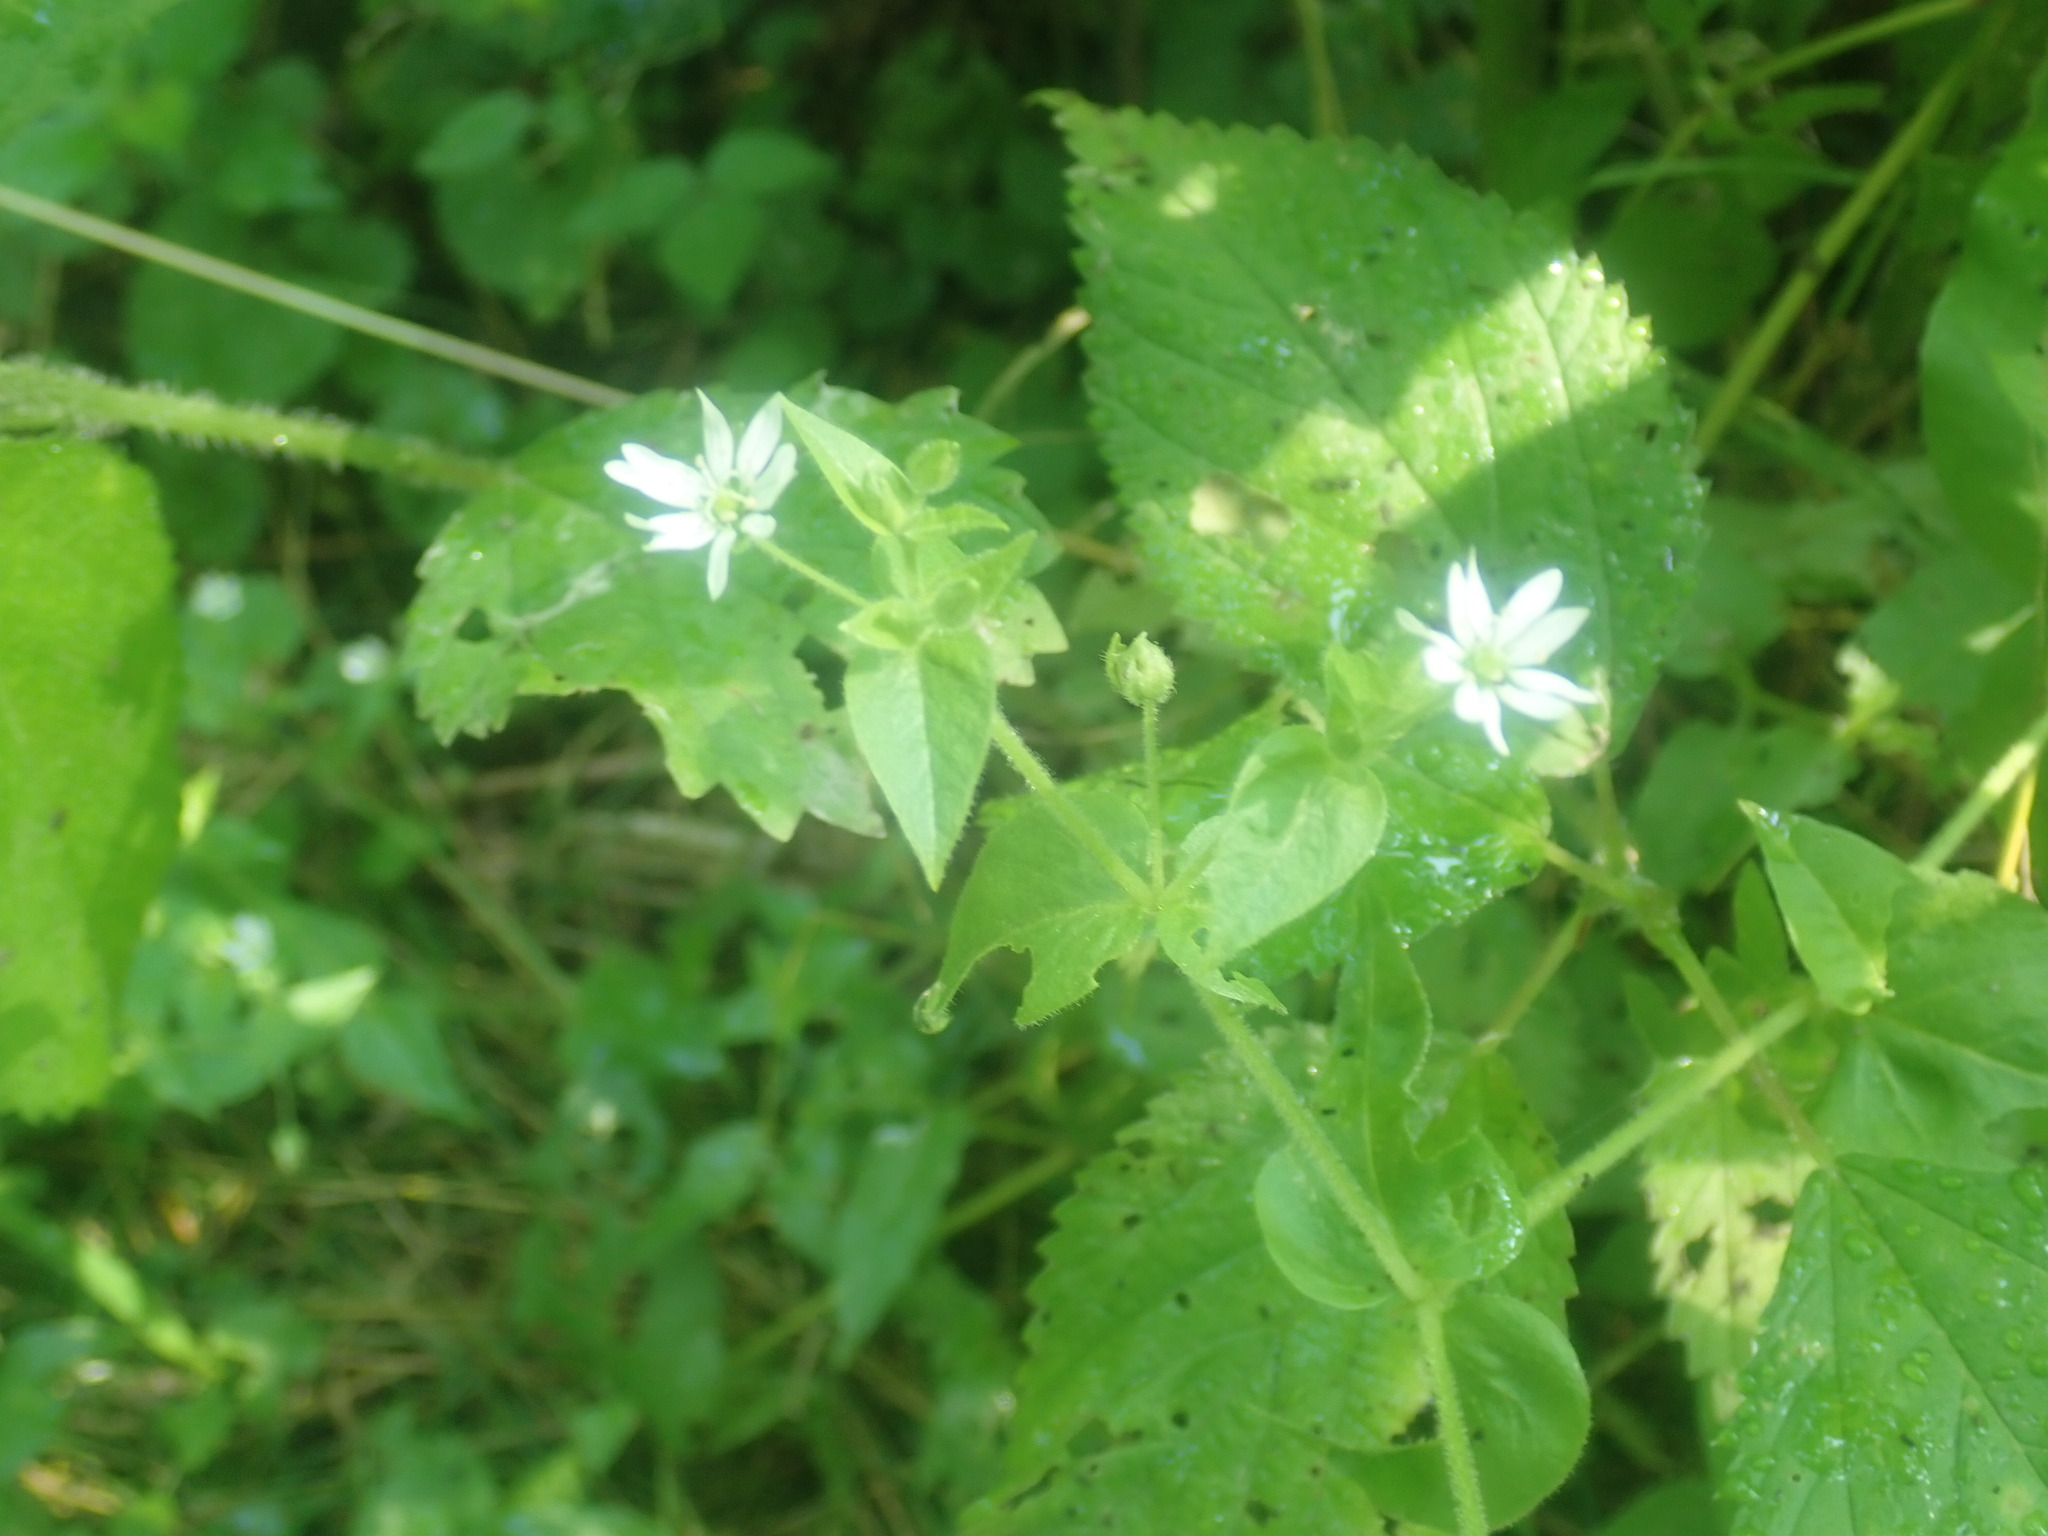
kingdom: Plantae
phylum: Tracheophyta
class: Magnoliopsida
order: Caryophyllales
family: Caryophyllaceae
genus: Stellaria
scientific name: Stellaria aquatica
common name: Water chickweed
